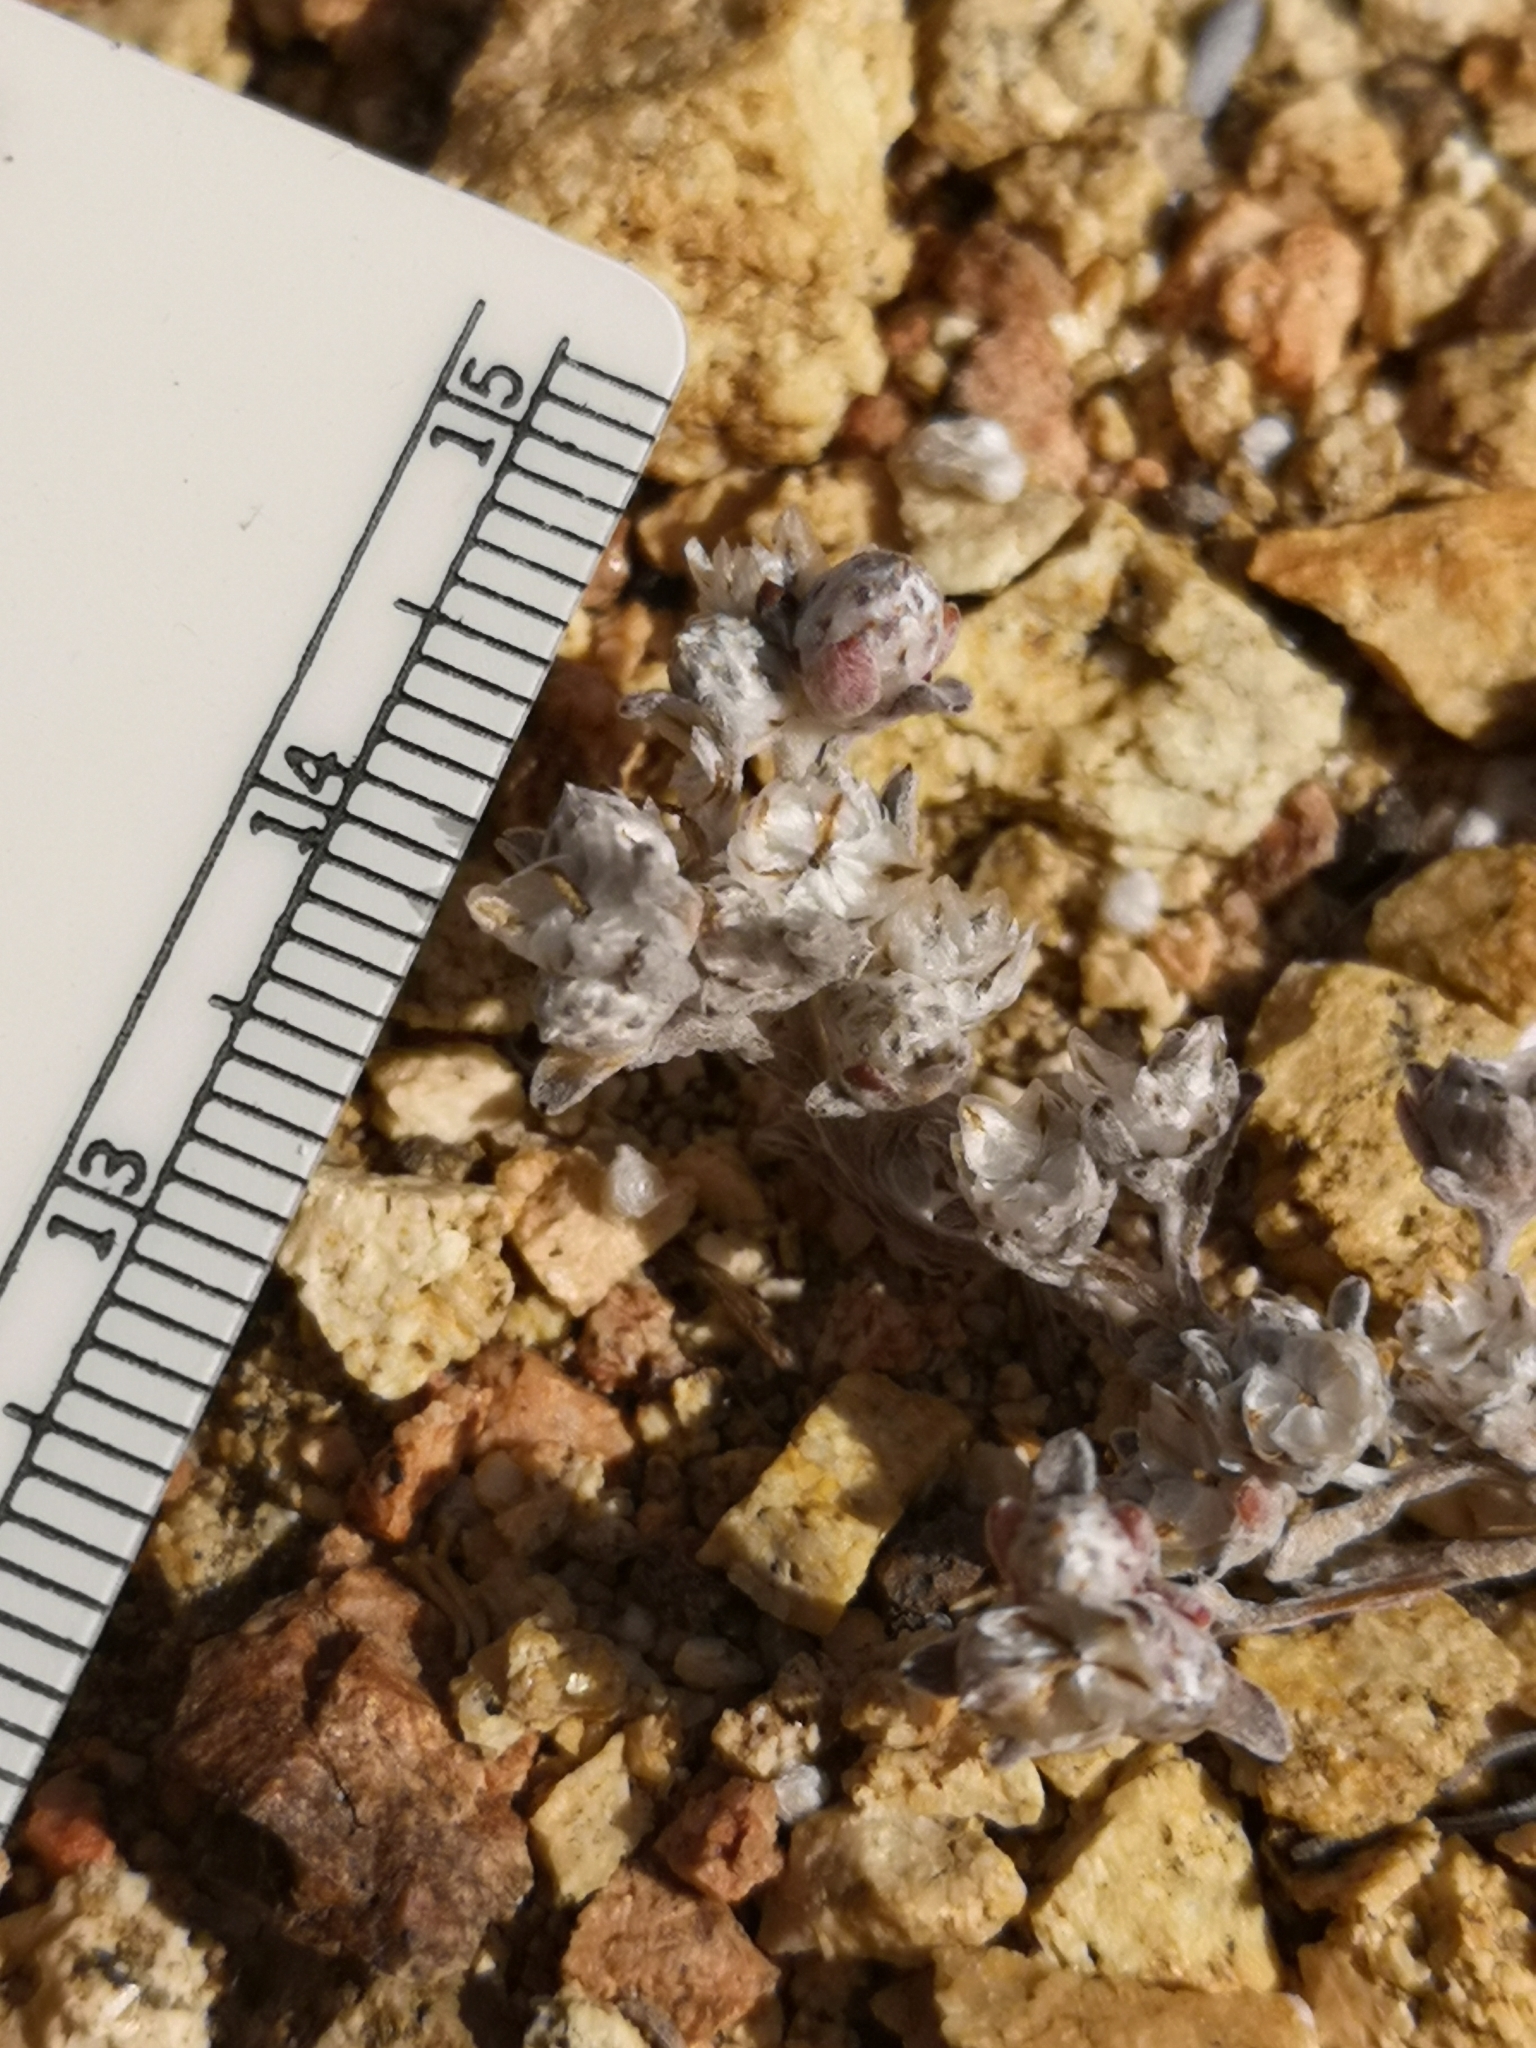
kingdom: Plantae
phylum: Tracheophyta
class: Magnoliopsida
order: Asterales
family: Asteraceae
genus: Stylocline
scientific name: Stylocline gnaphaloides
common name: Everlasting nest-straw
